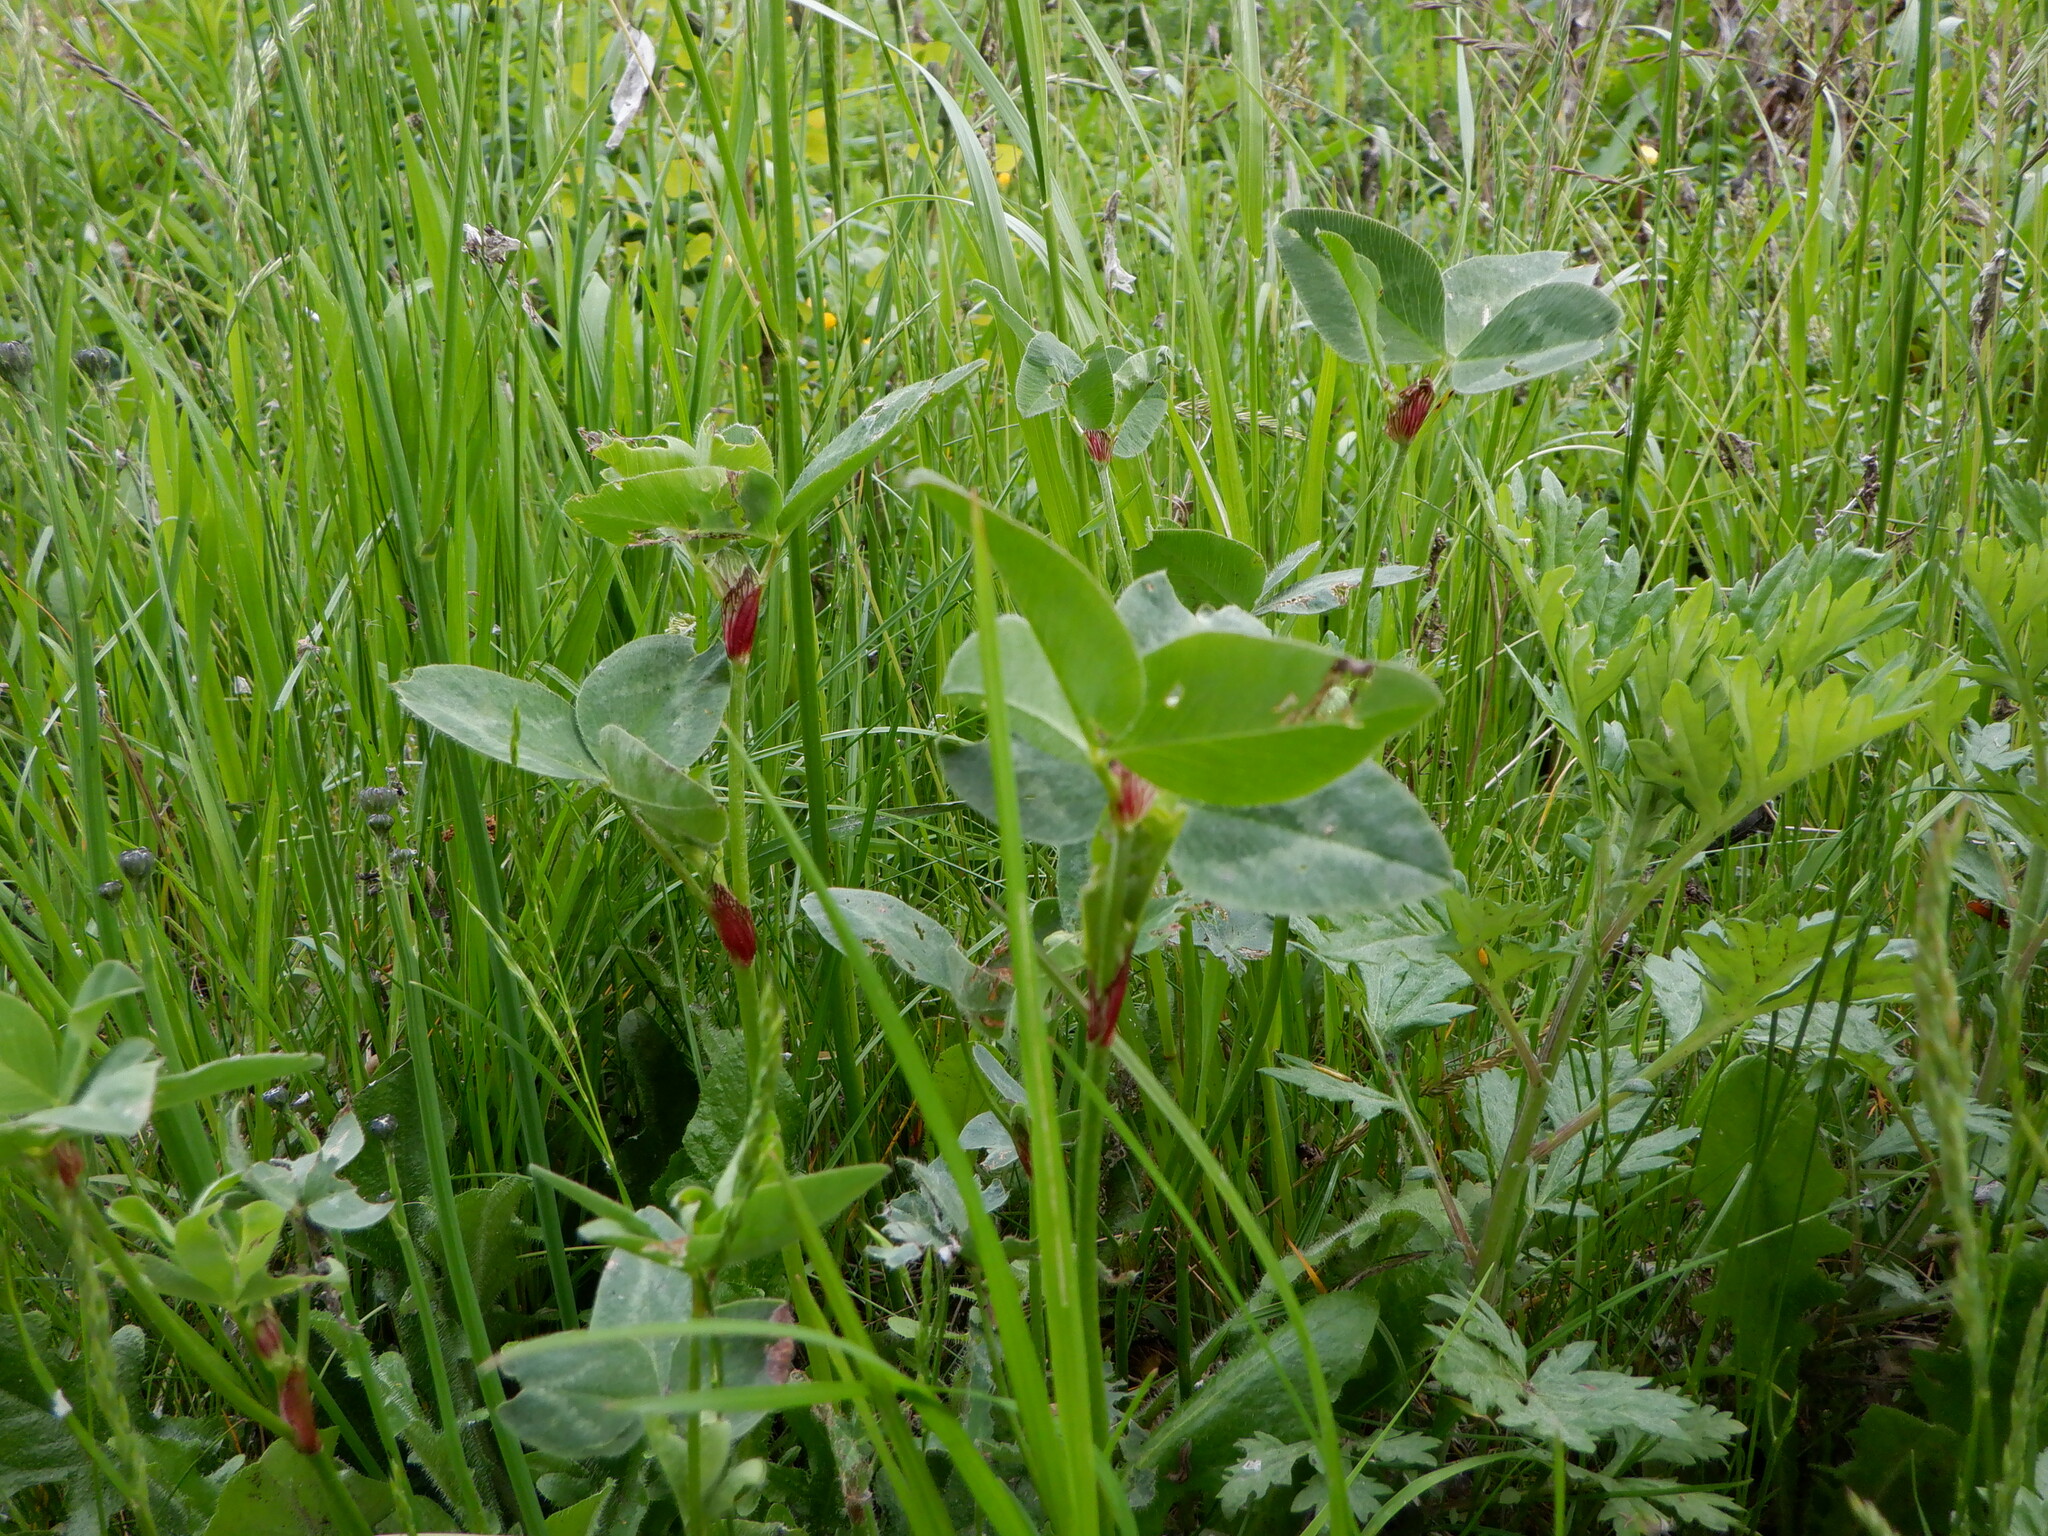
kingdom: Plantae
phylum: Tracheophyta
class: Magnoliopsida
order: Fabales
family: Fabaceae
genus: Trifolium
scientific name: Trifolium pratense
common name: Red clover
